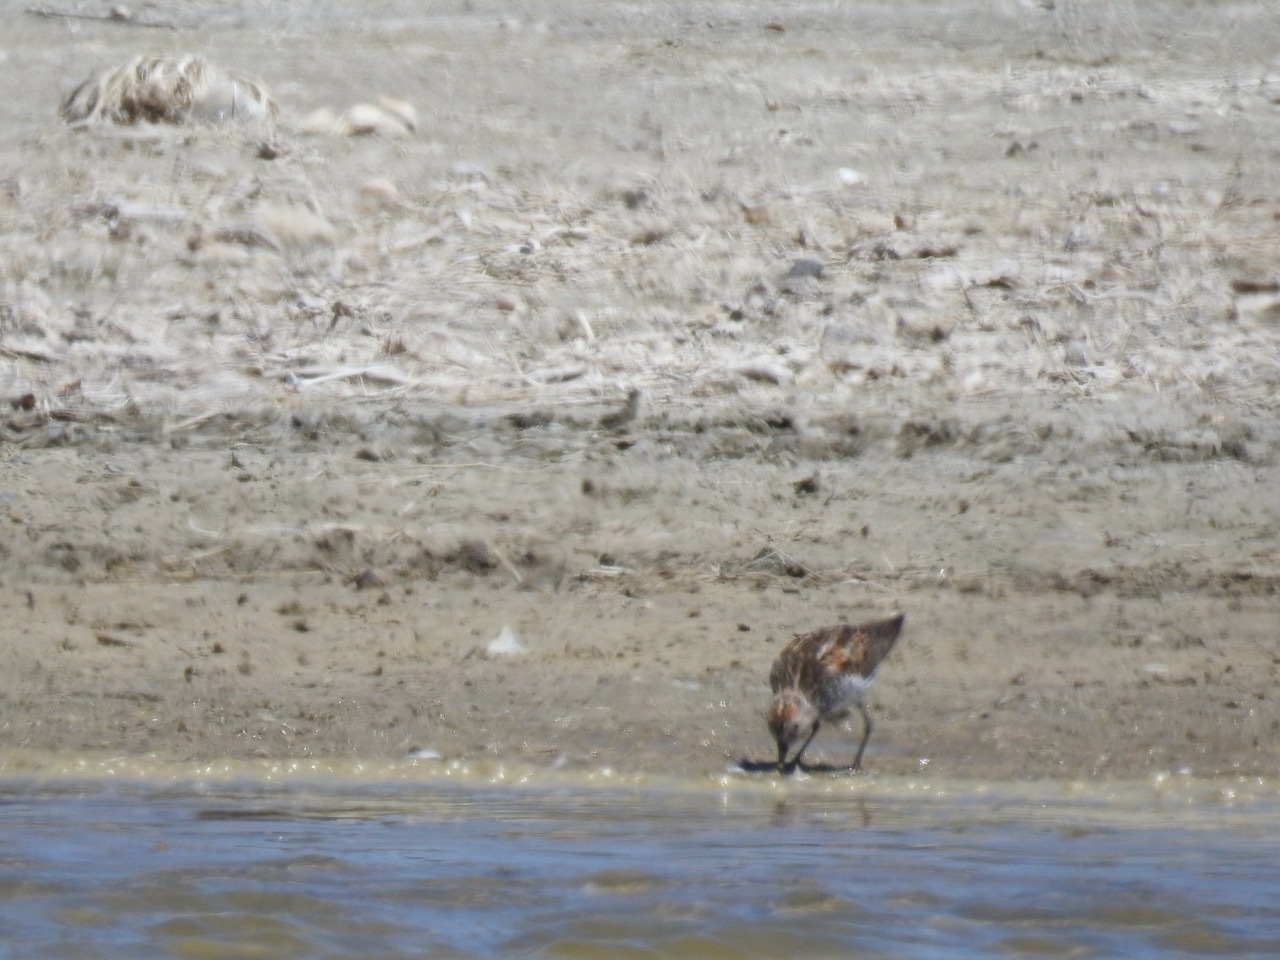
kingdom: Animalia
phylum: Chordata
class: Aves
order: Charadriiformes
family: Scolopacidae
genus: Calidris
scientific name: Calidris mauri
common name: Western sandpiper
